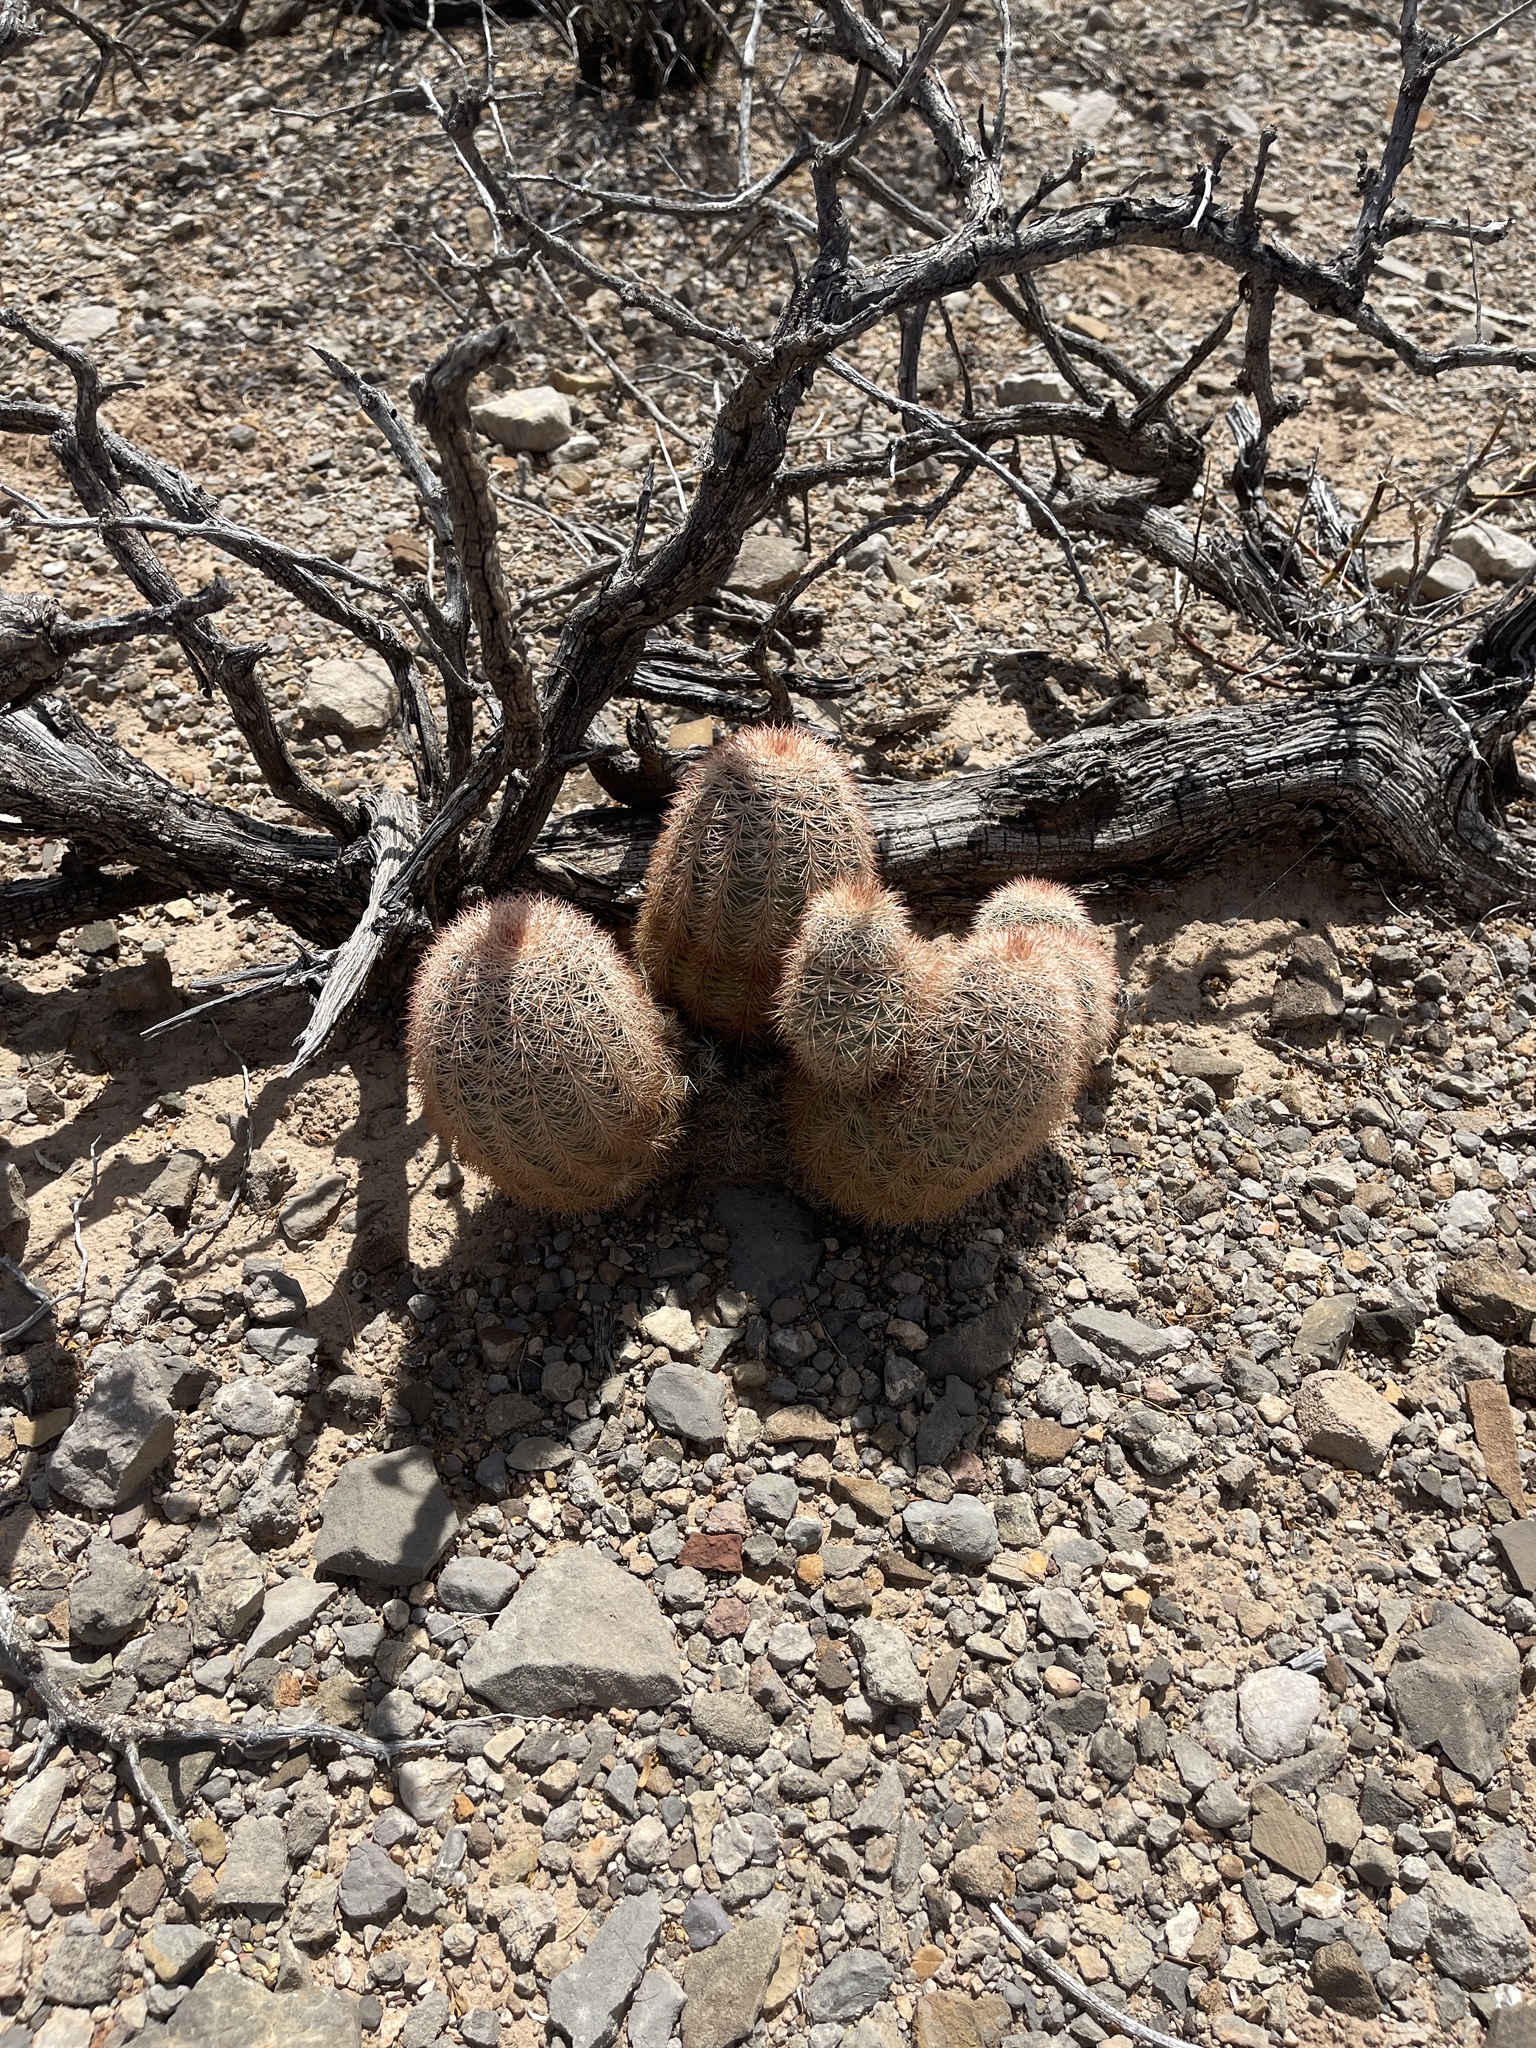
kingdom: Plantae
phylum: Tracheophyta
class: Magnoliopsida
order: Caryophyllales
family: Cactaceae
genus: Echinocereus
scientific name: Echinocereus dasyacanthus
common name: Spiny hedgehog cactus
